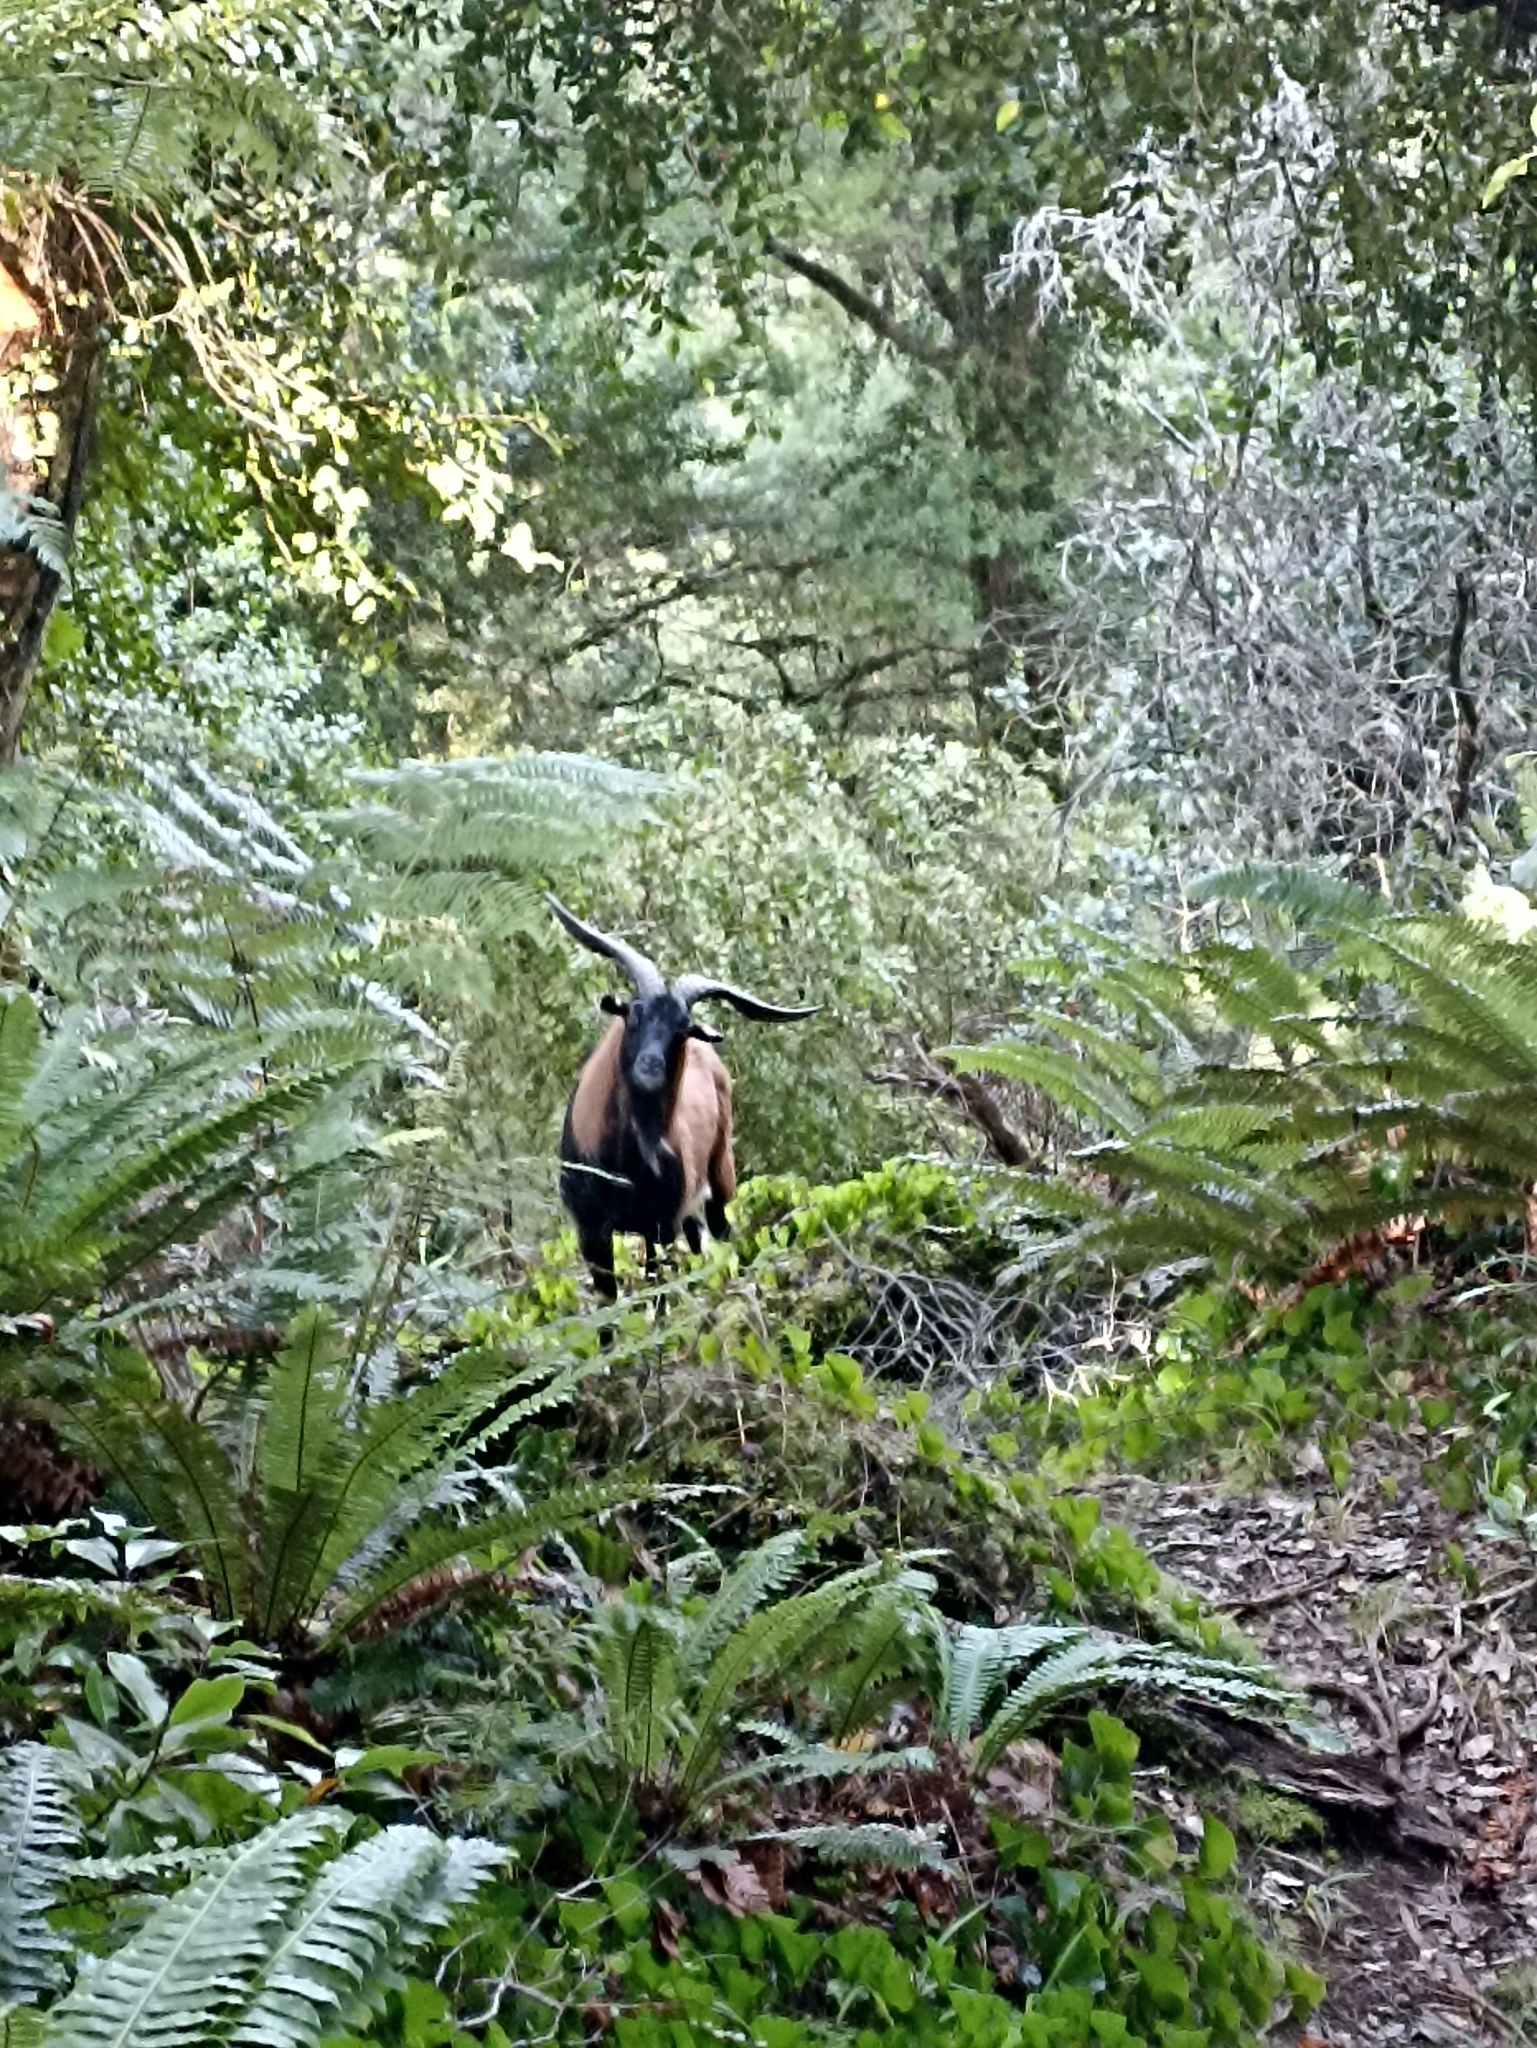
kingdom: Animalia
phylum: Chordata
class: Mammalia
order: Artiodactyla
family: Bovidae
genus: Capra
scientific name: Capra hircus
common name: Domestic goat
